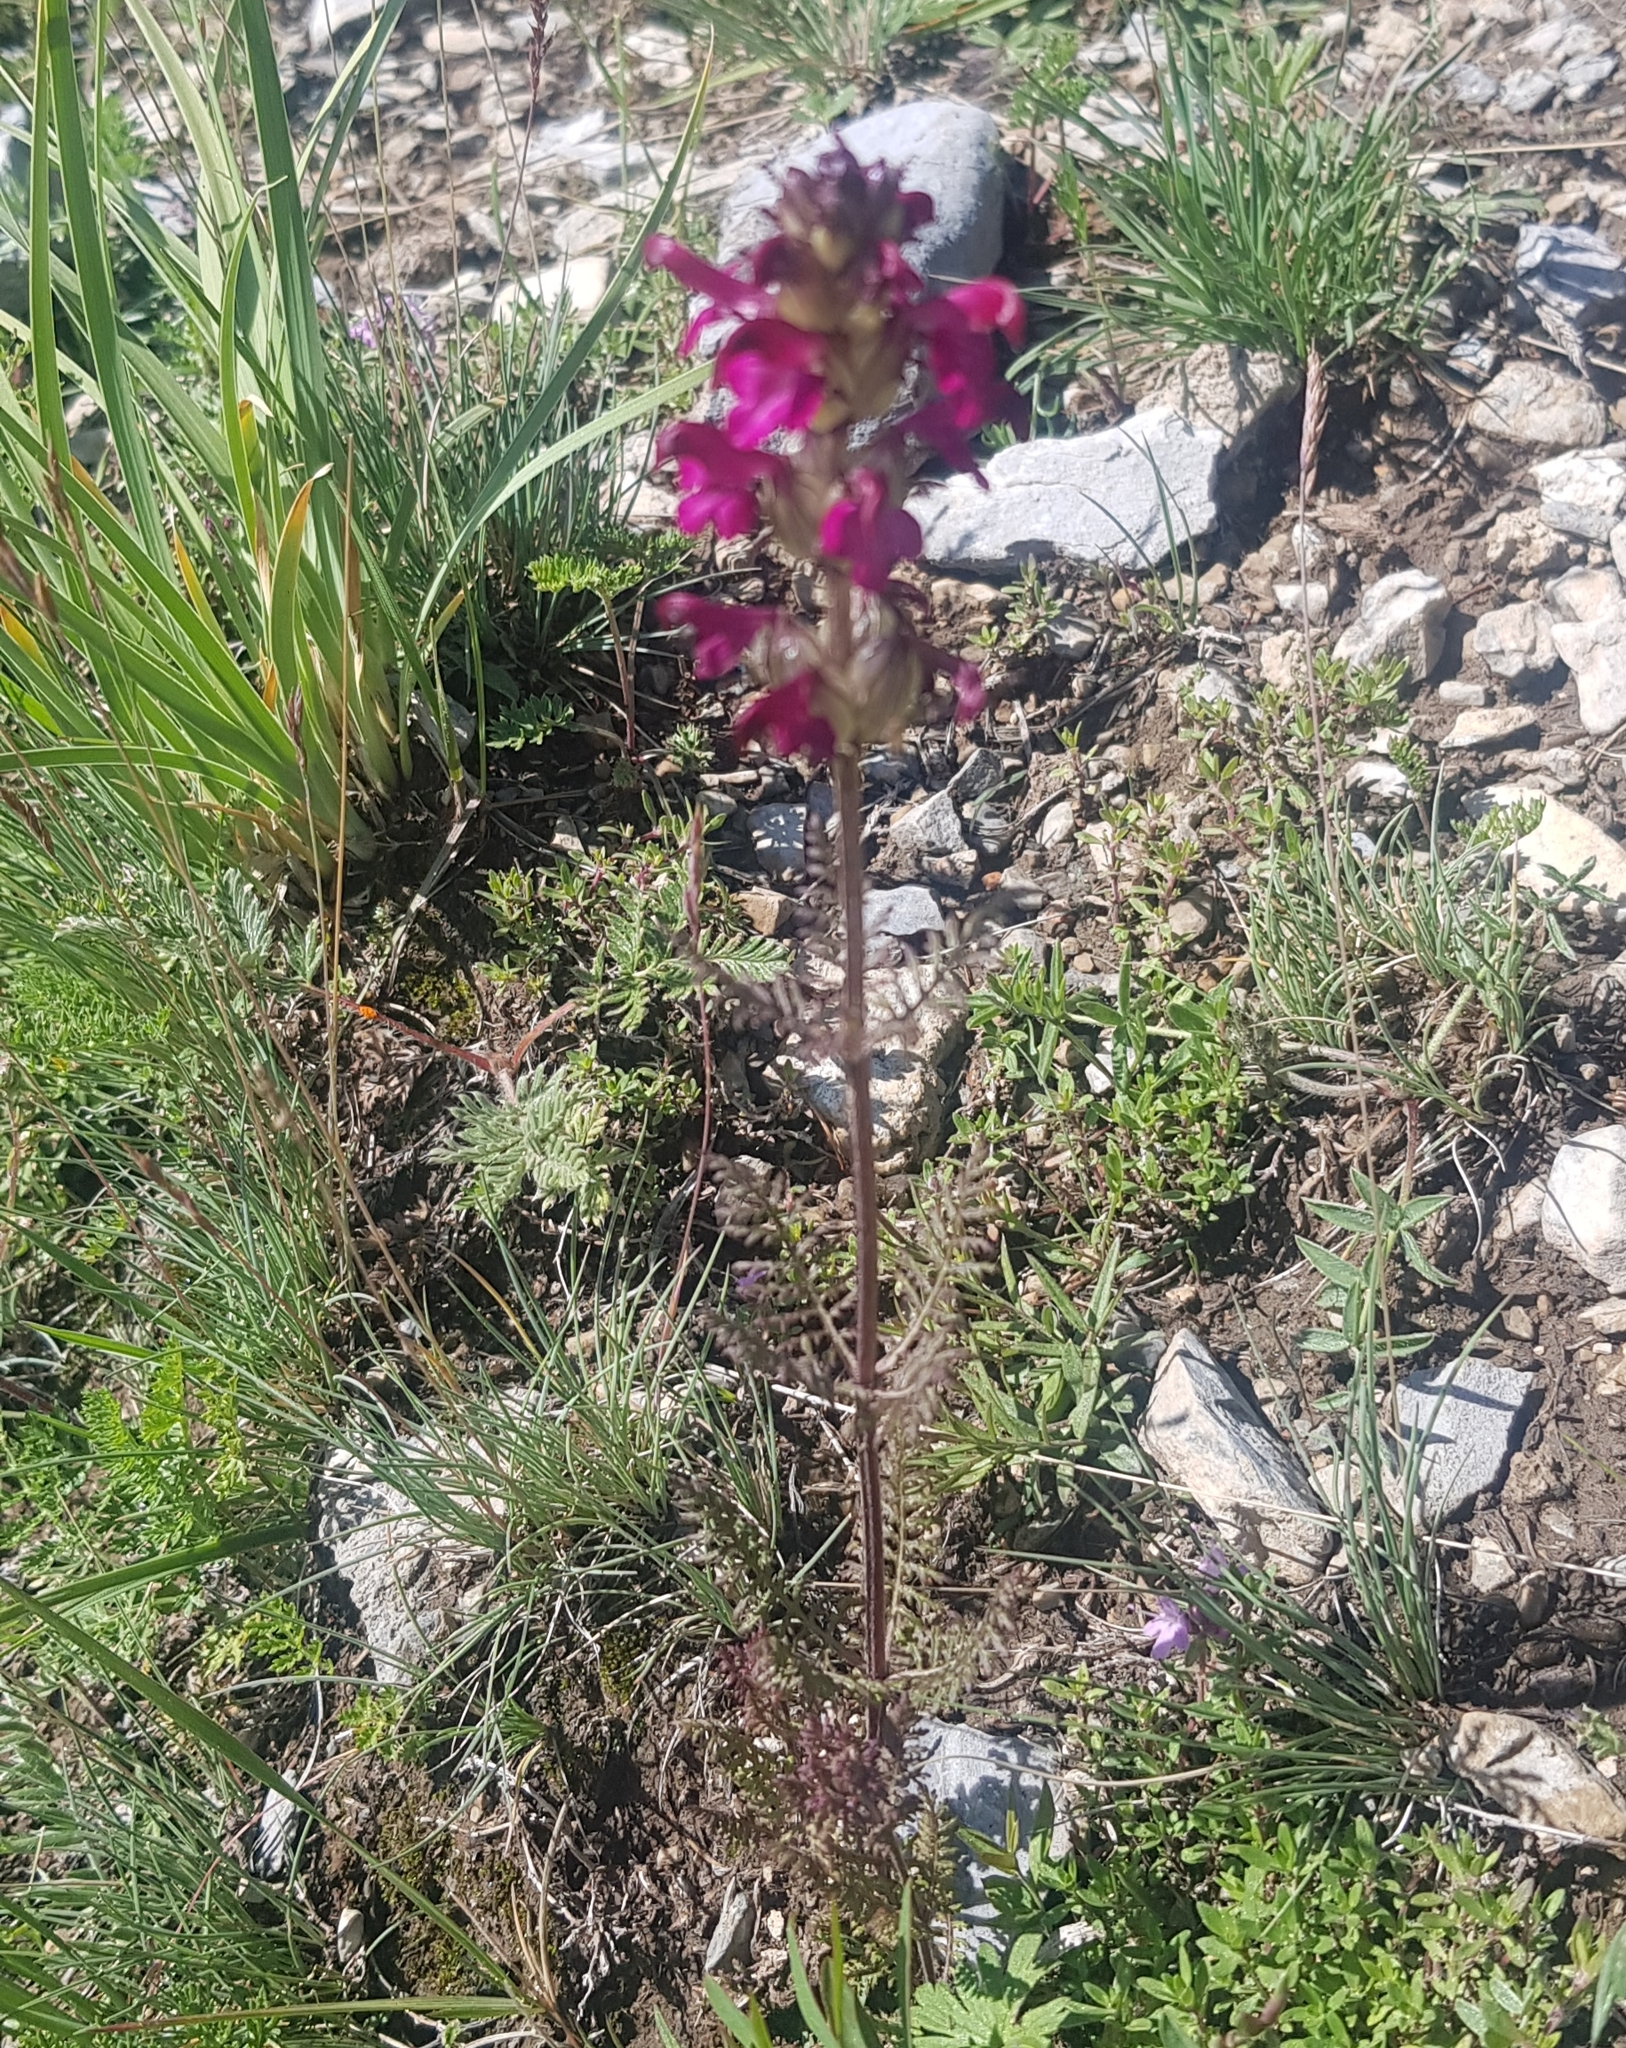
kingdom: Plantae
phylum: Tracheophyta
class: Magnoliopsida
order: Lamiales
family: Orobanchaceae
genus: Pedicularis
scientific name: Pedicularis resupinata
